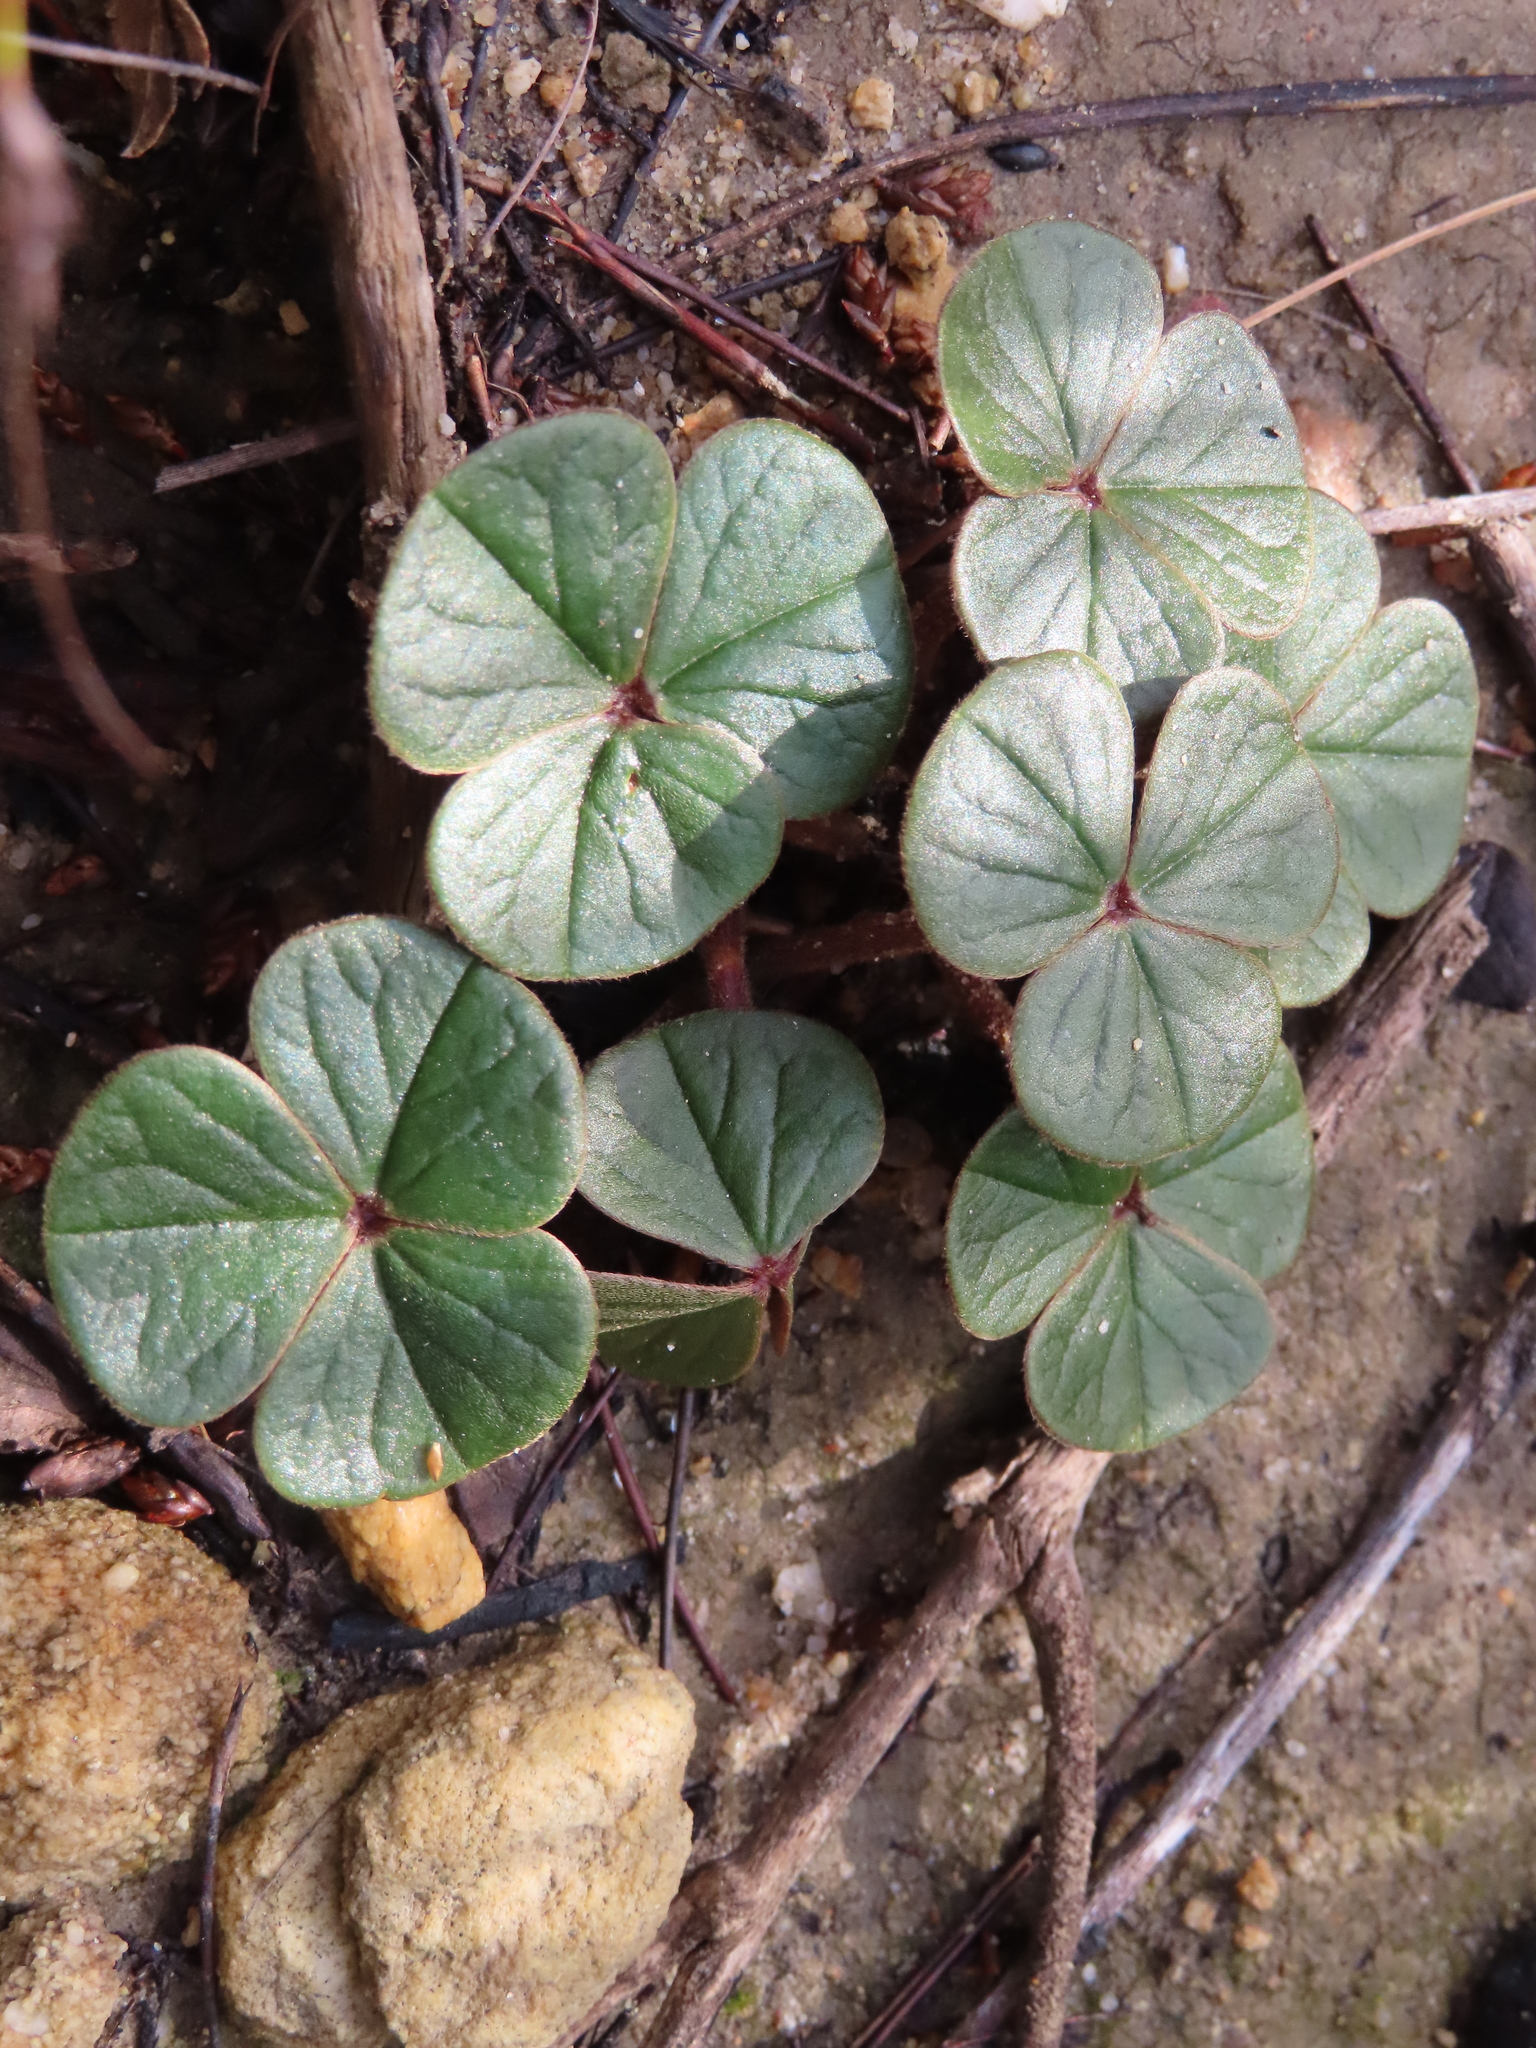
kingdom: Plantae
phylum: Tracheophyta
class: Magnoliopsida
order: Oxalidales
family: Oxalidaceae
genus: Oxalis
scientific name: Oxalis truncatula
